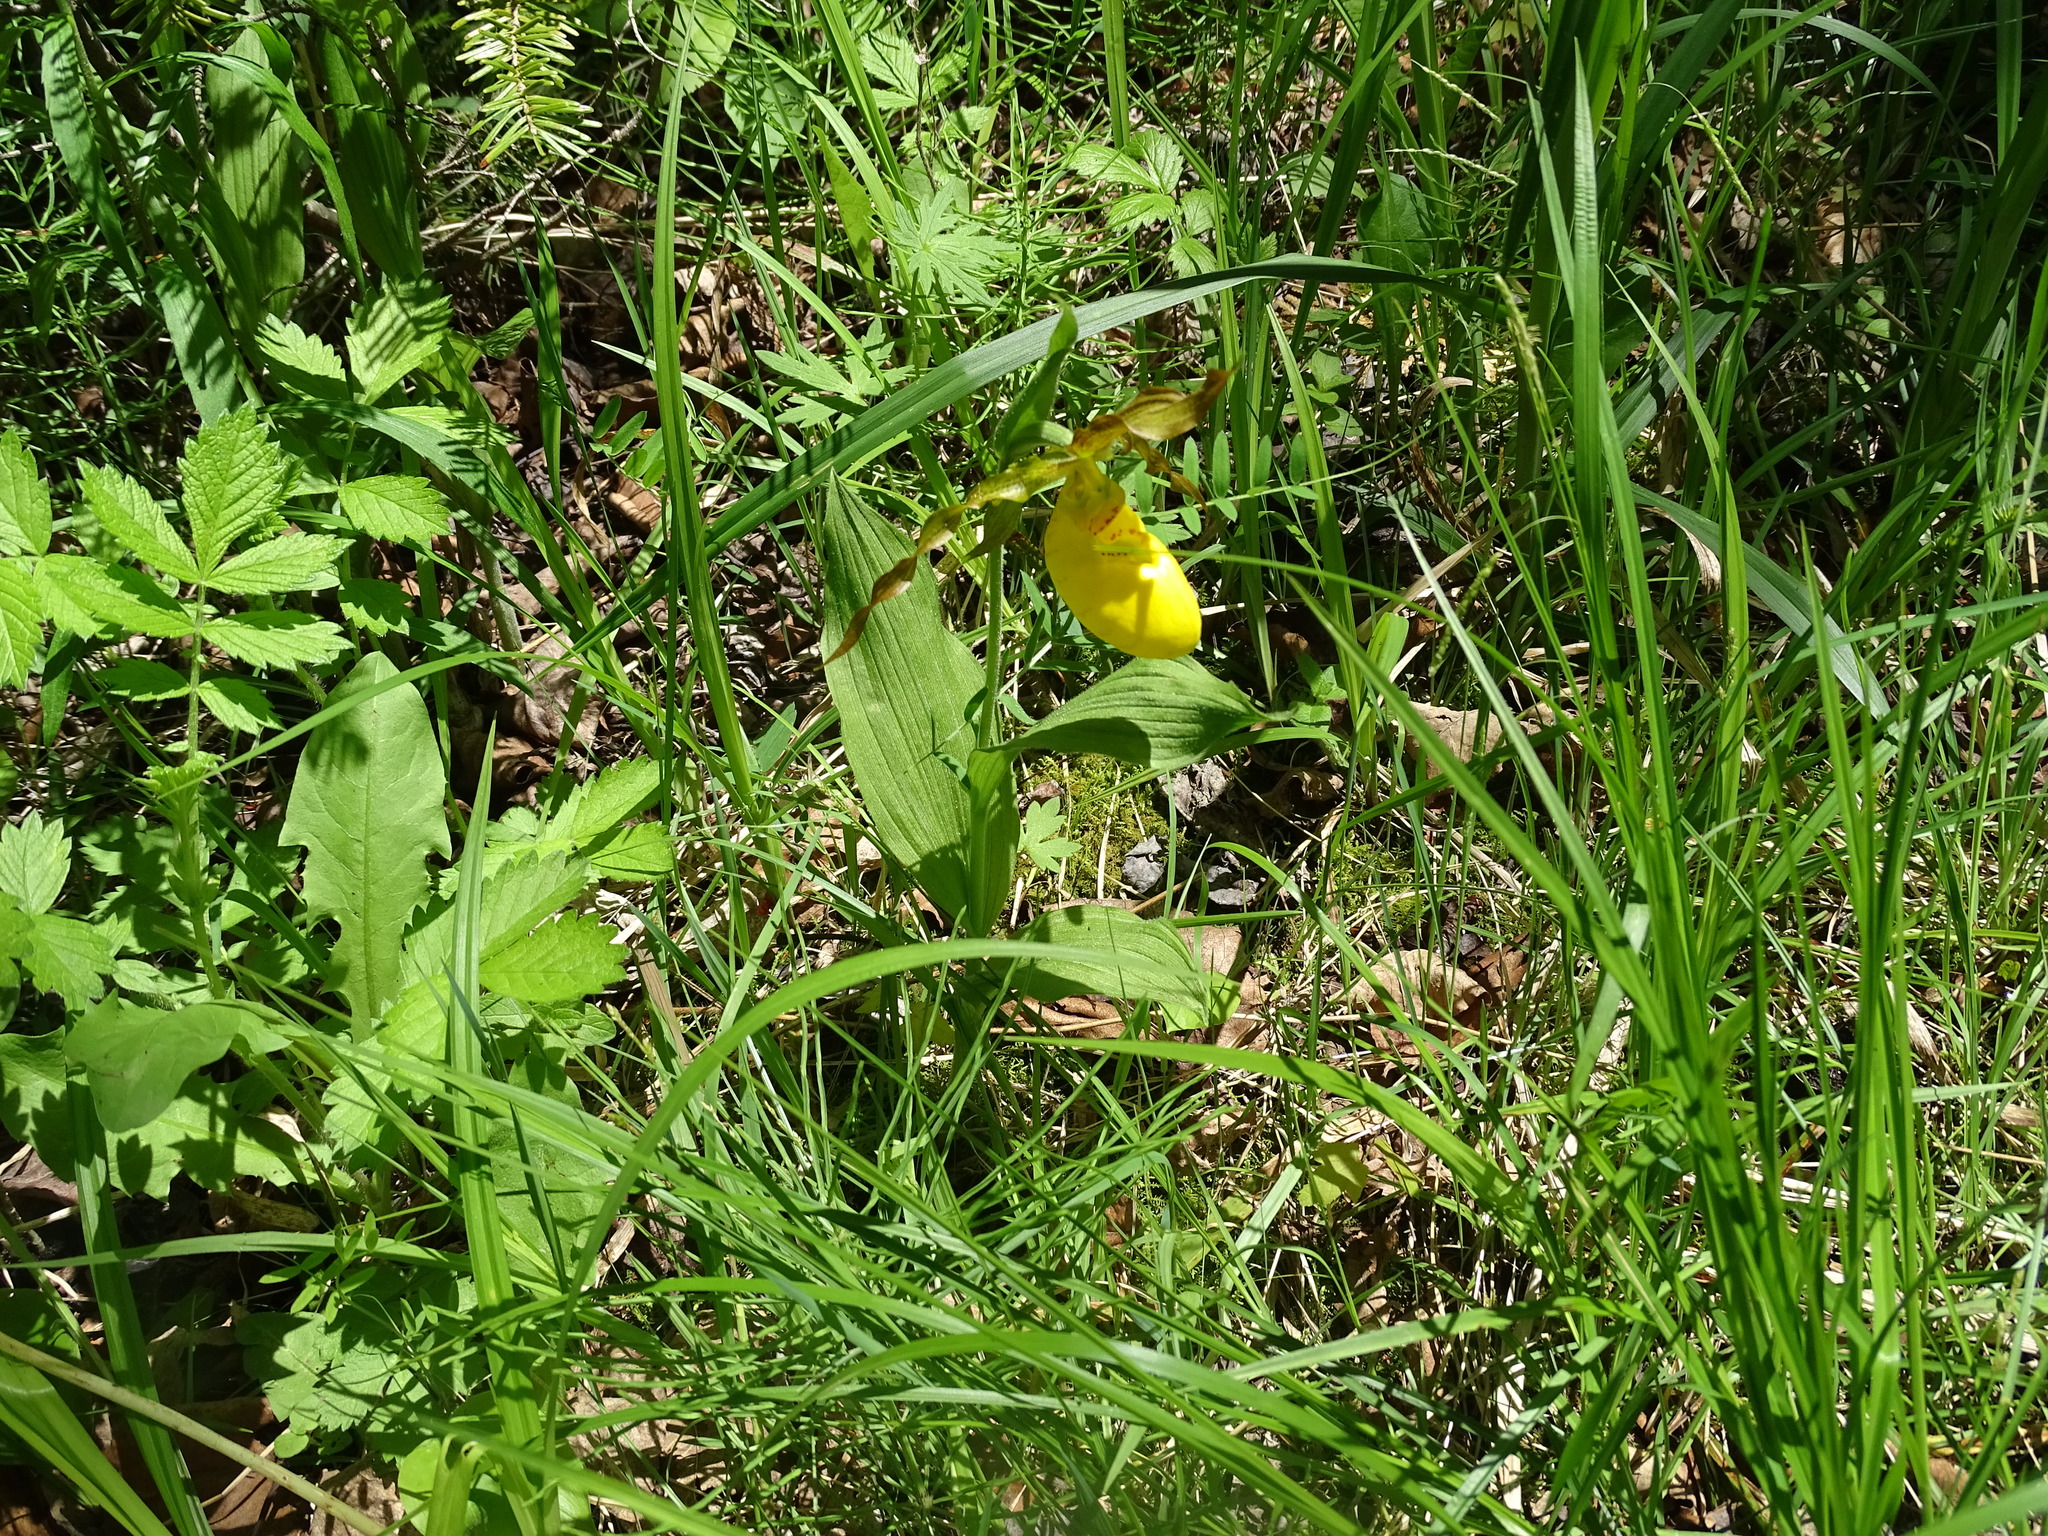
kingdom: Plantae
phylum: Tracheophyta
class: Liliopsida
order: Asparagales
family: Orchidaceae
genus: Cypripedium
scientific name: Cypripedium parviflorum
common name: American yellow lady's-slipper
